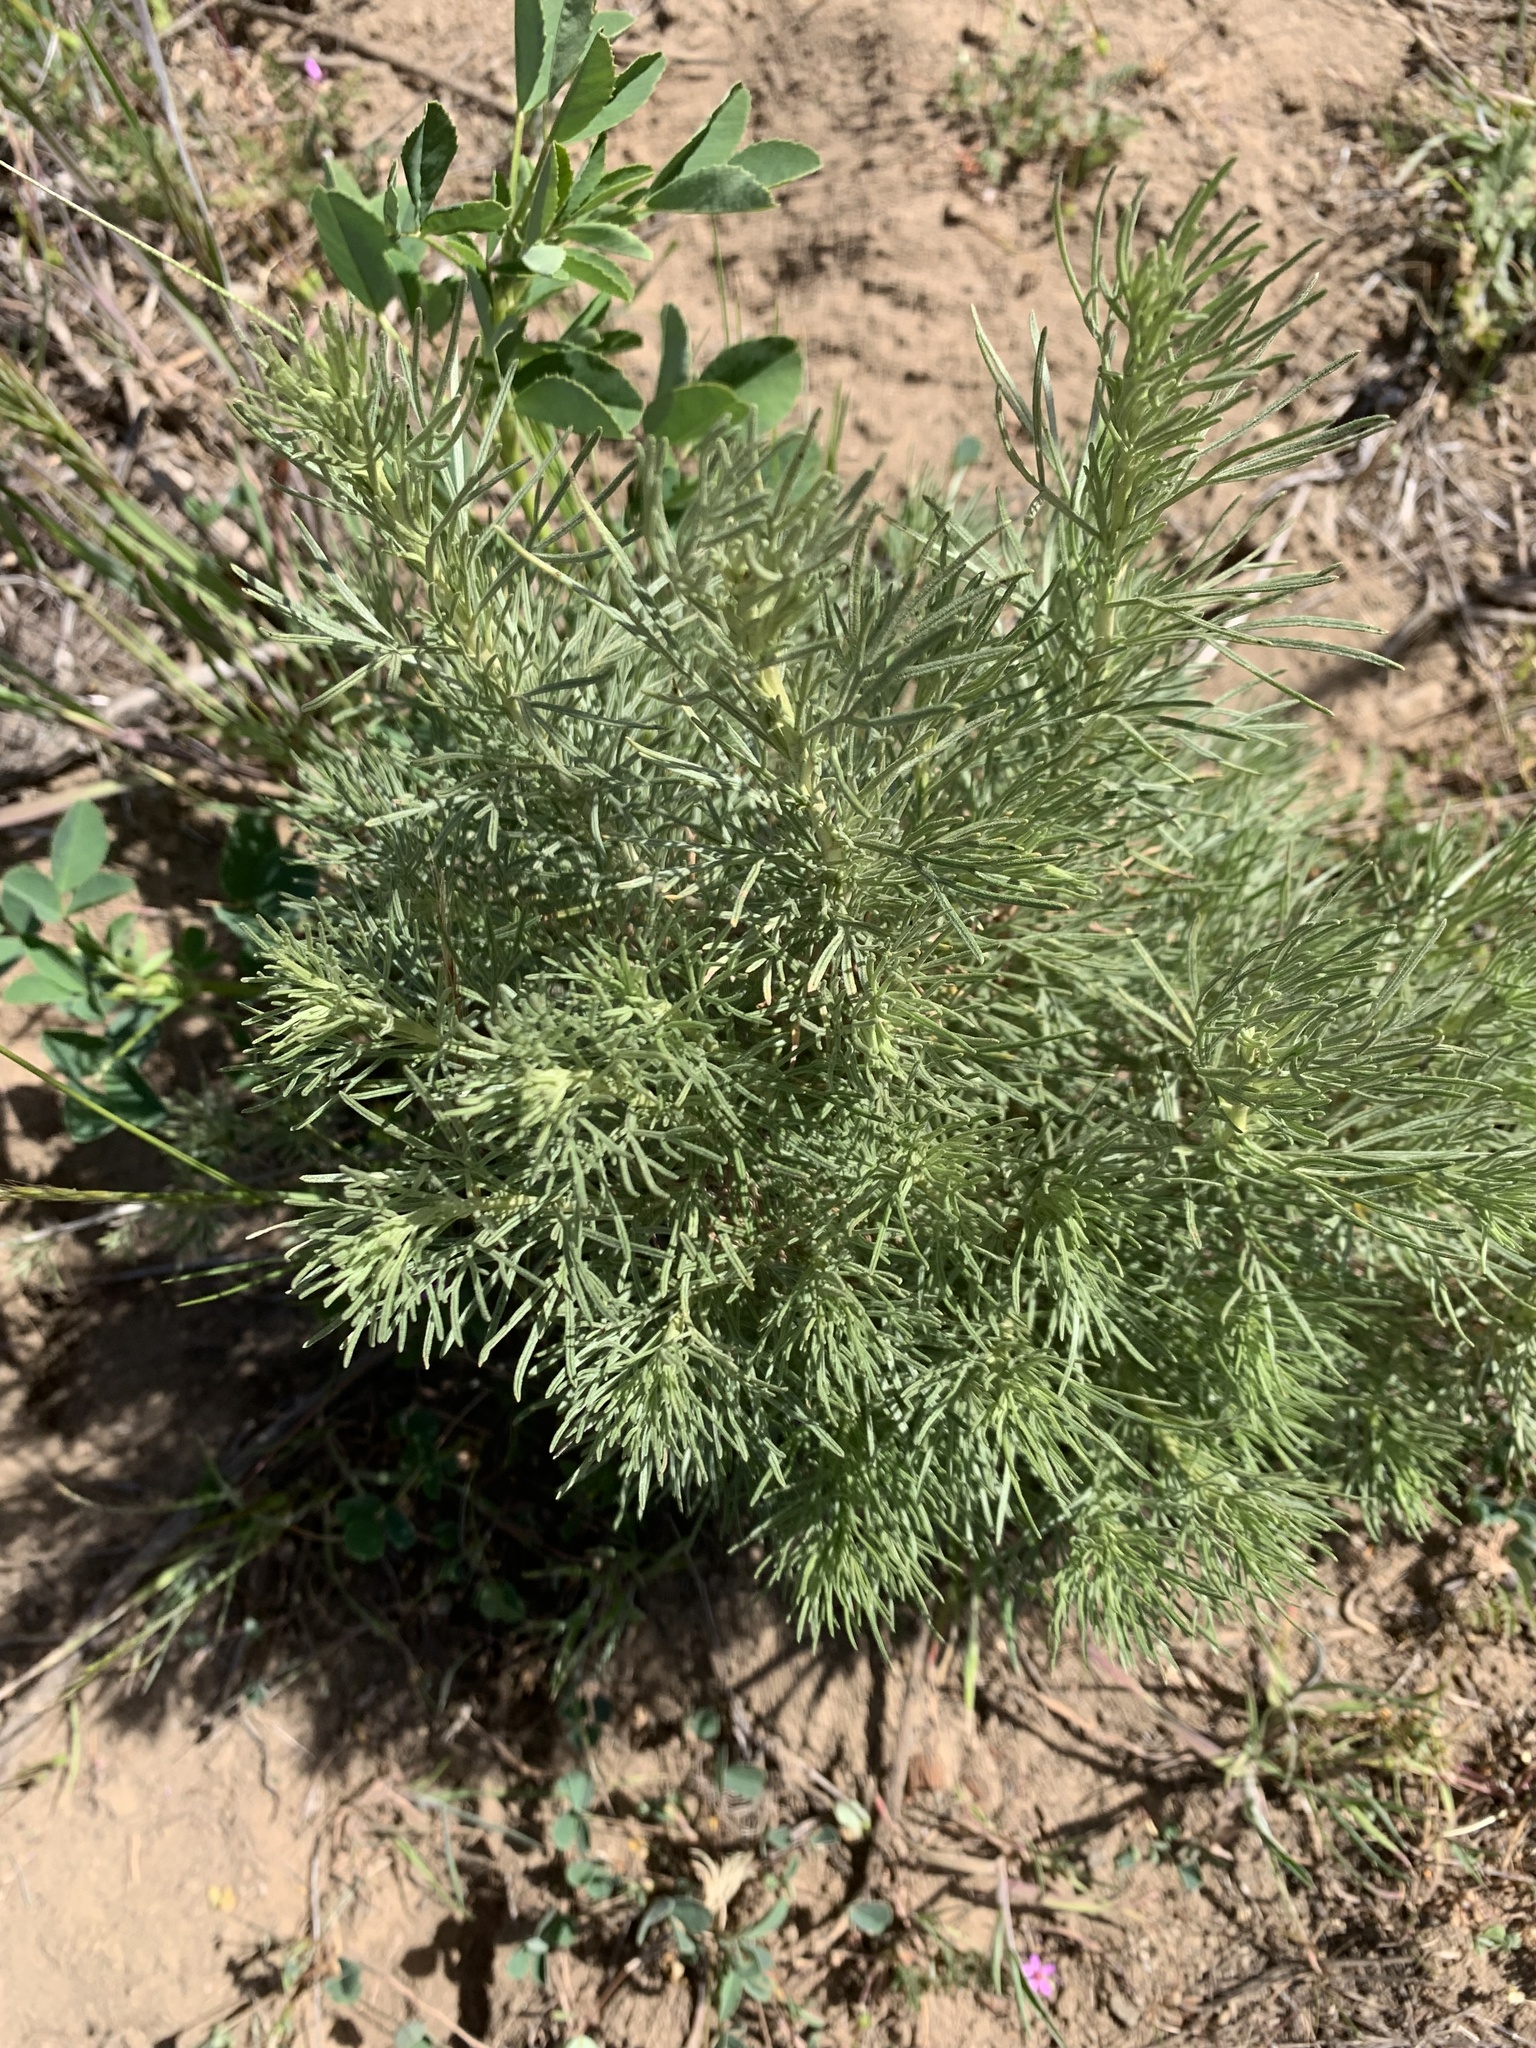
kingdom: Plantae
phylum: Tracheophyta
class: Magnoliopsida
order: Asterales
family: Asteraceae
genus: Artemisia
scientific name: Artemisia californica
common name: California sagebrush
